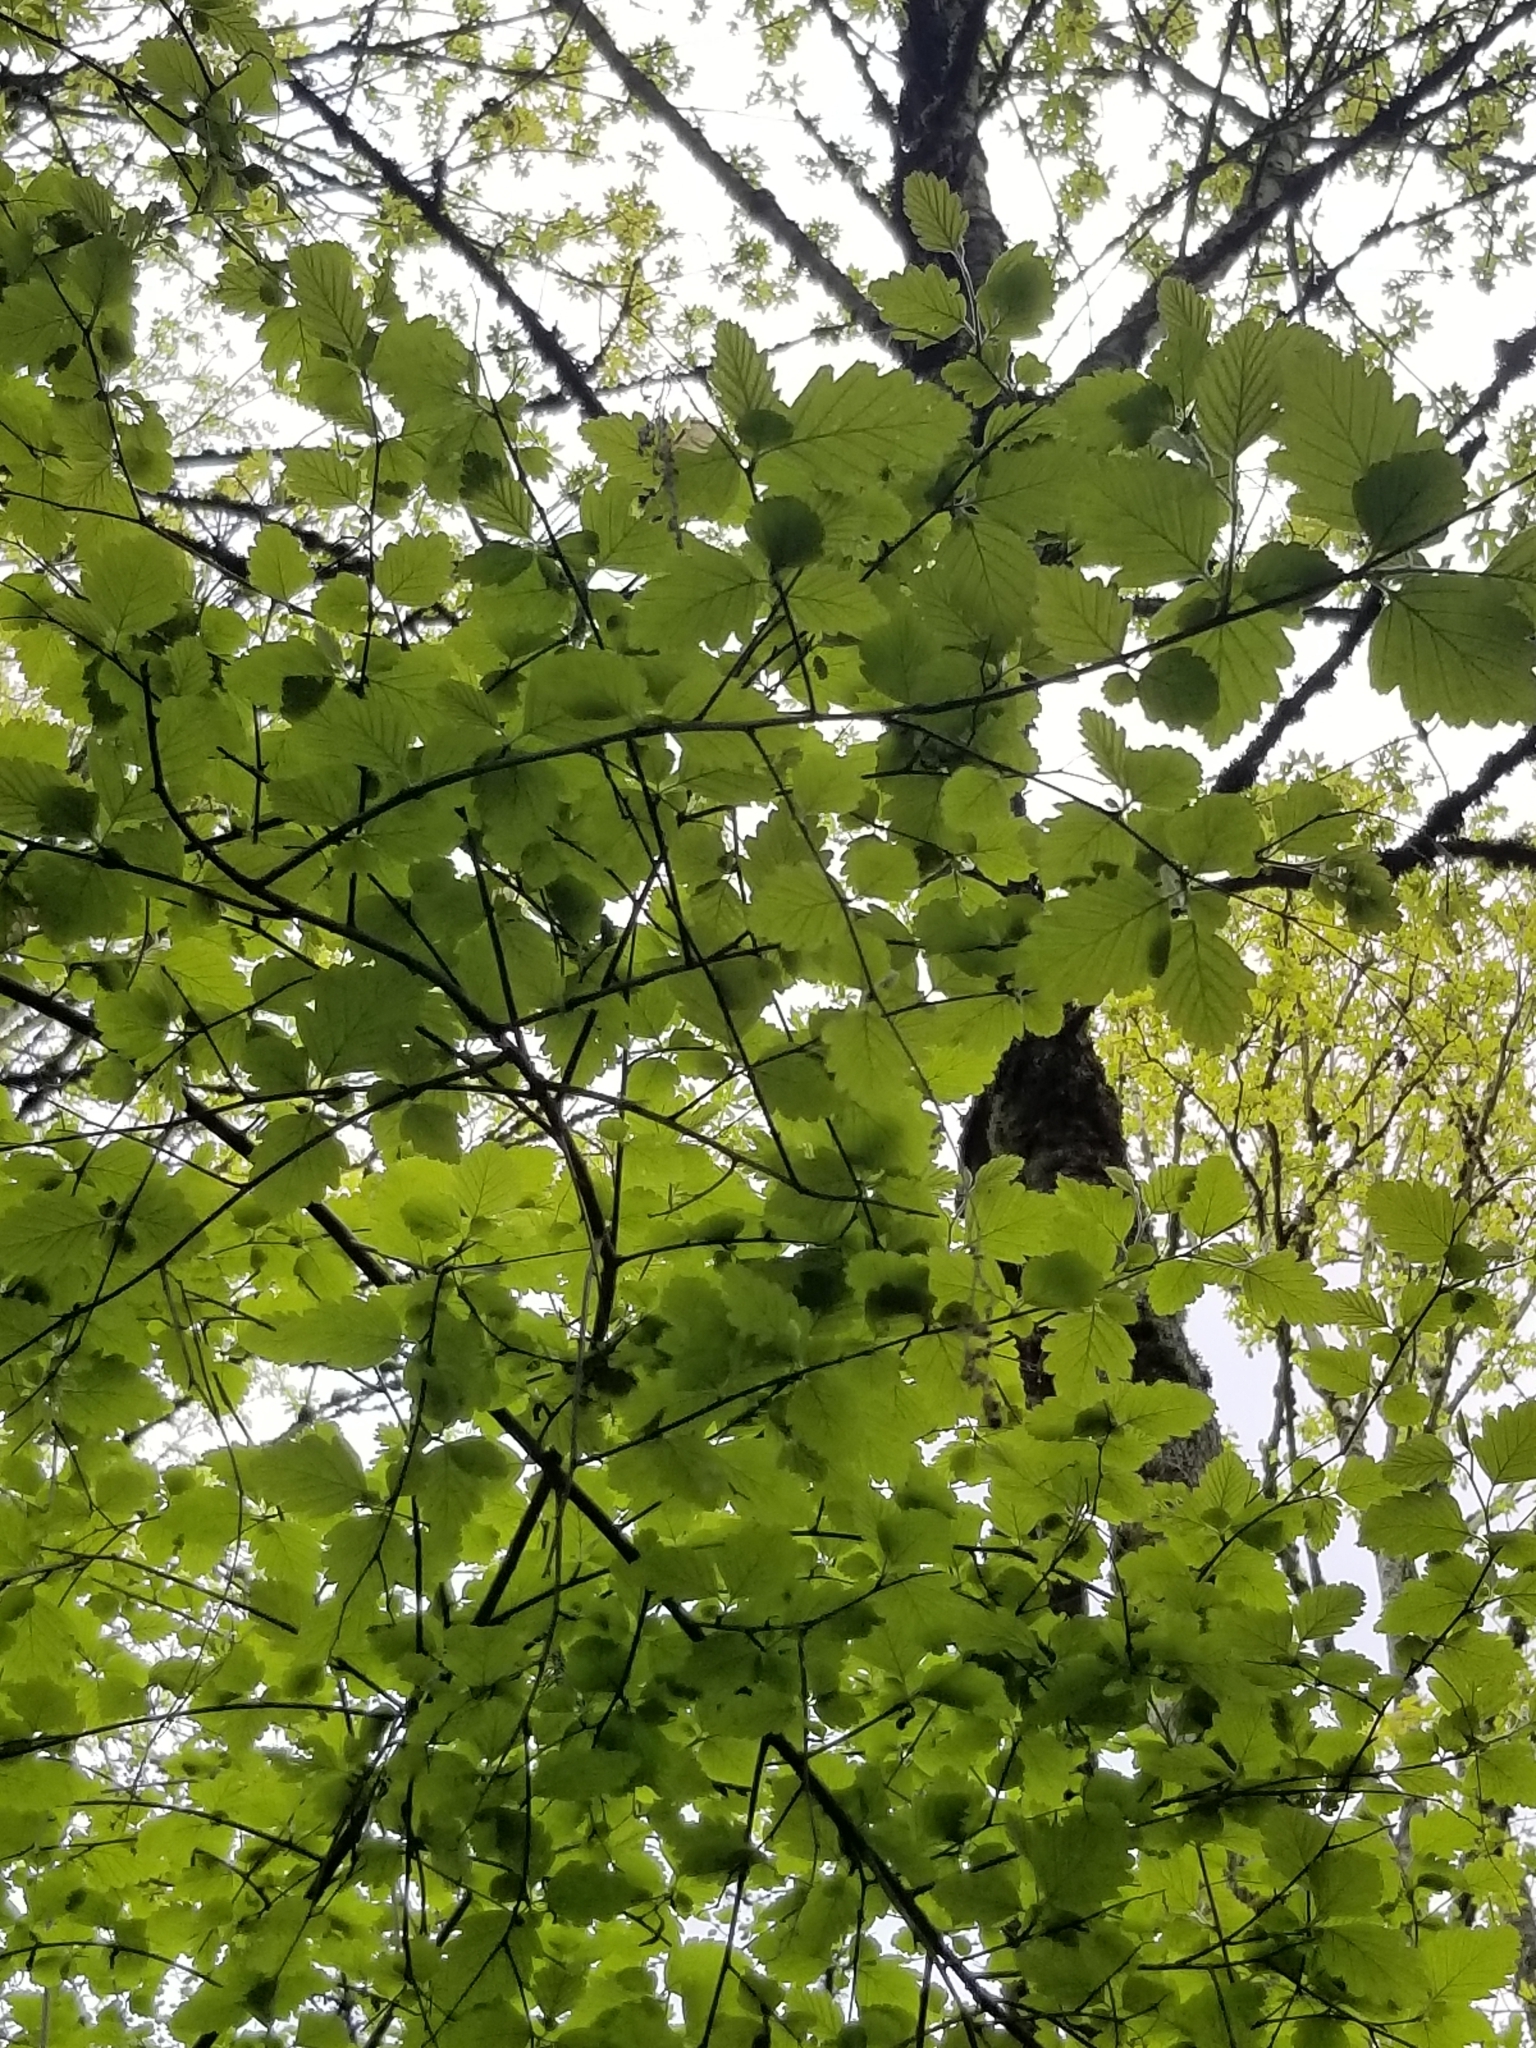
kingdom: Plantae
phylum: Tracheophyta
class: Magnoliopsida
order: Rosales
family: Rosaceae
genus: Holodiscus
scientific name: Holodiscus discolor
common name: Oceanspray
